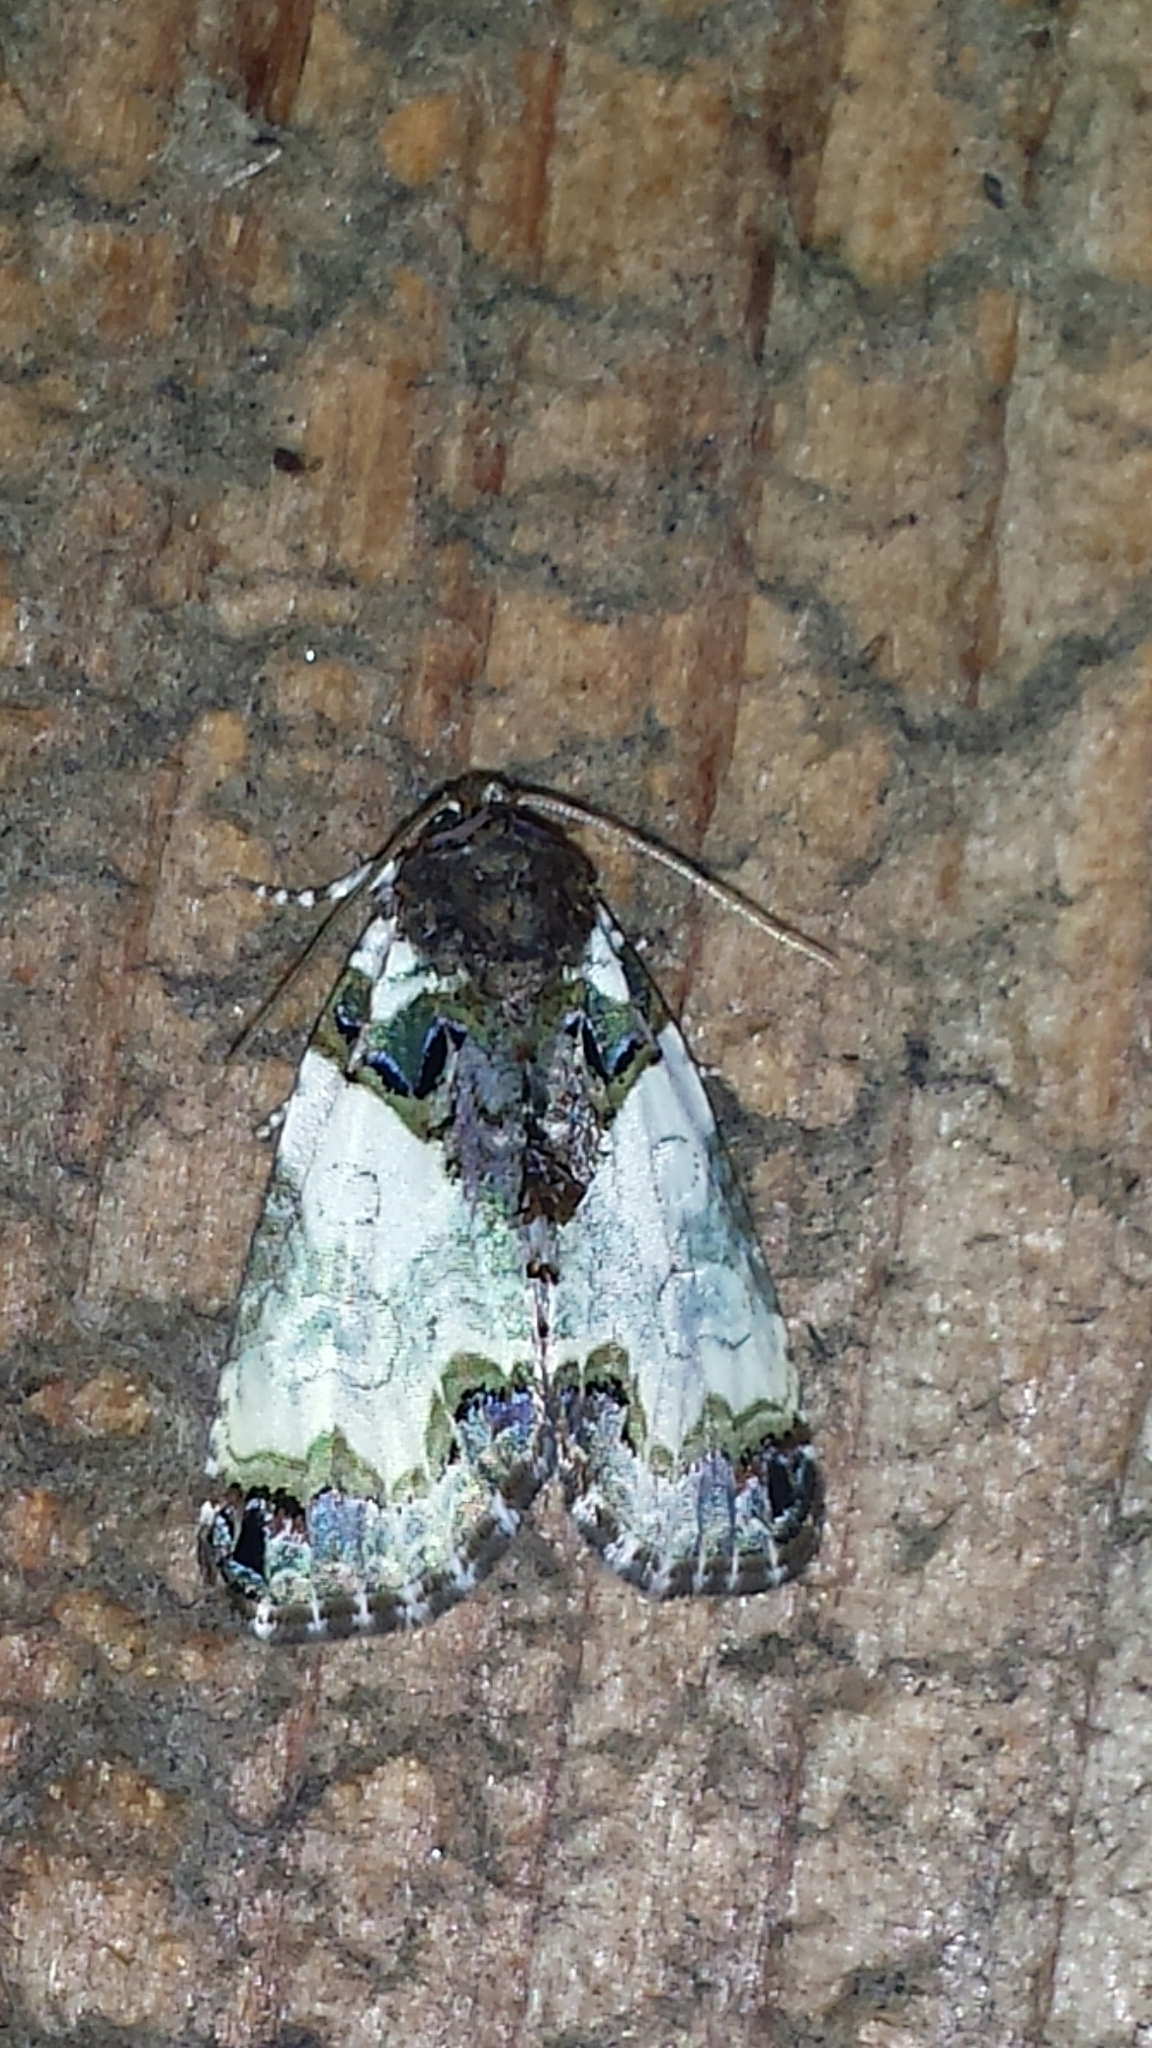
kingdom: Animalia
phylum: Arthropoda
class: Insecta
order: Lepidoptera
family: Noctuidae
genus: Cerma
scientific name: Cerma cerintha
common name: Tufted bird-dropping moth
